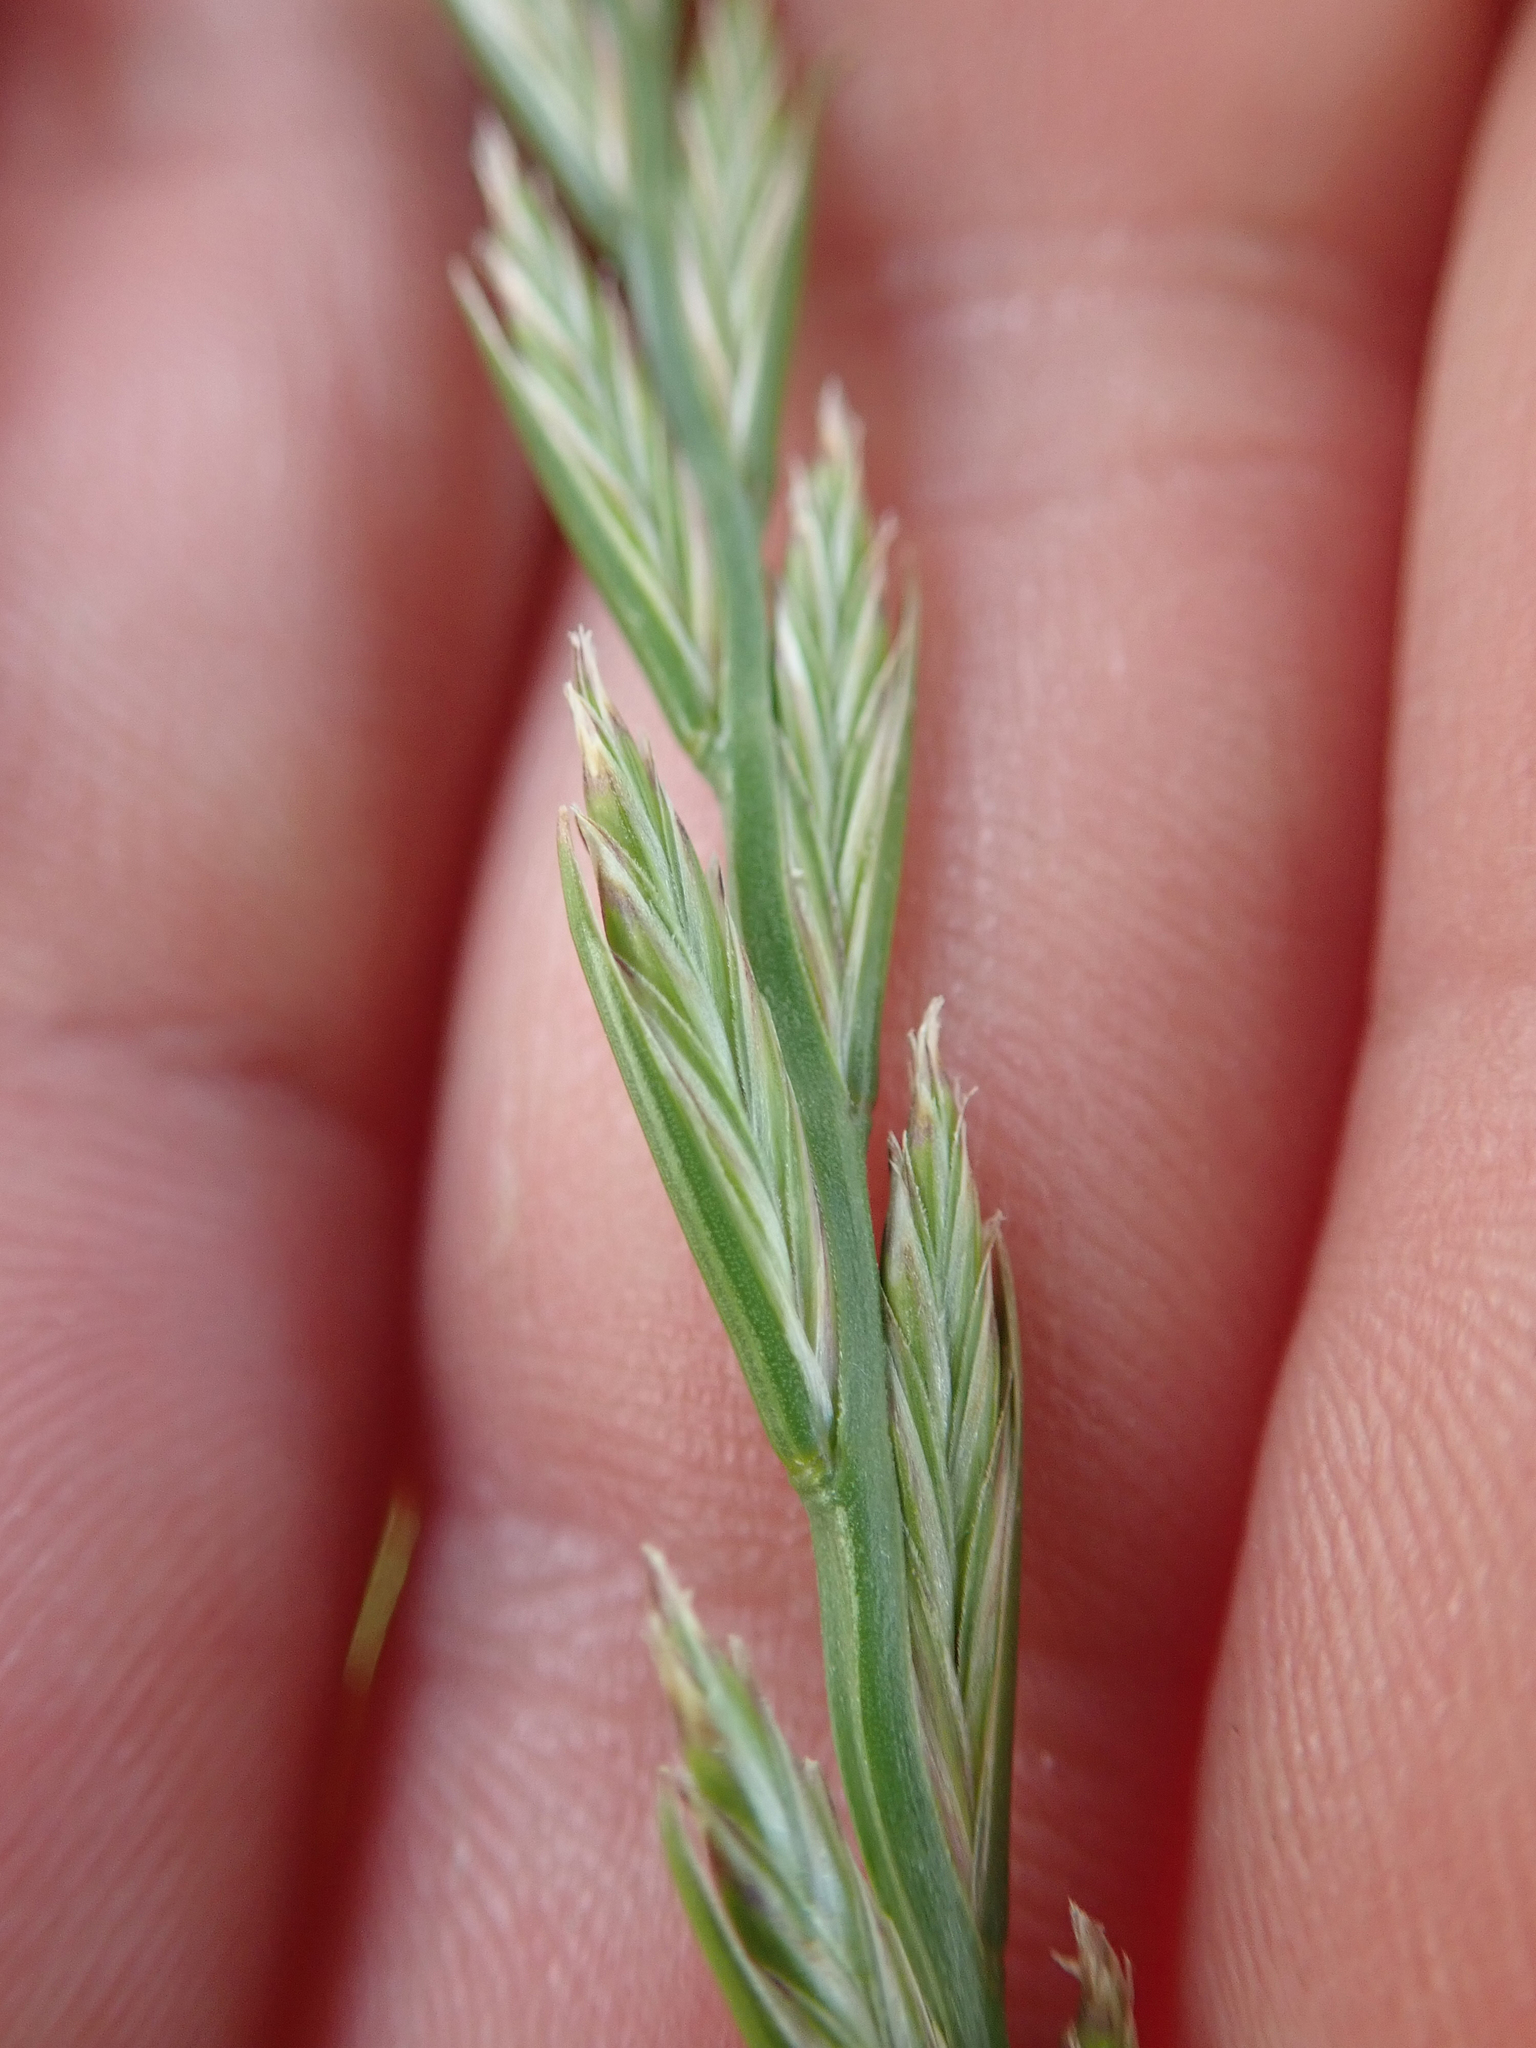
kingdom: Plantae
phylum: Tracheophyta
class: Liliopsida
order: Poales
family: Poaceae
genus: Lolium
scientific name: Lolium perenne
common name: Perennial ryegrass
